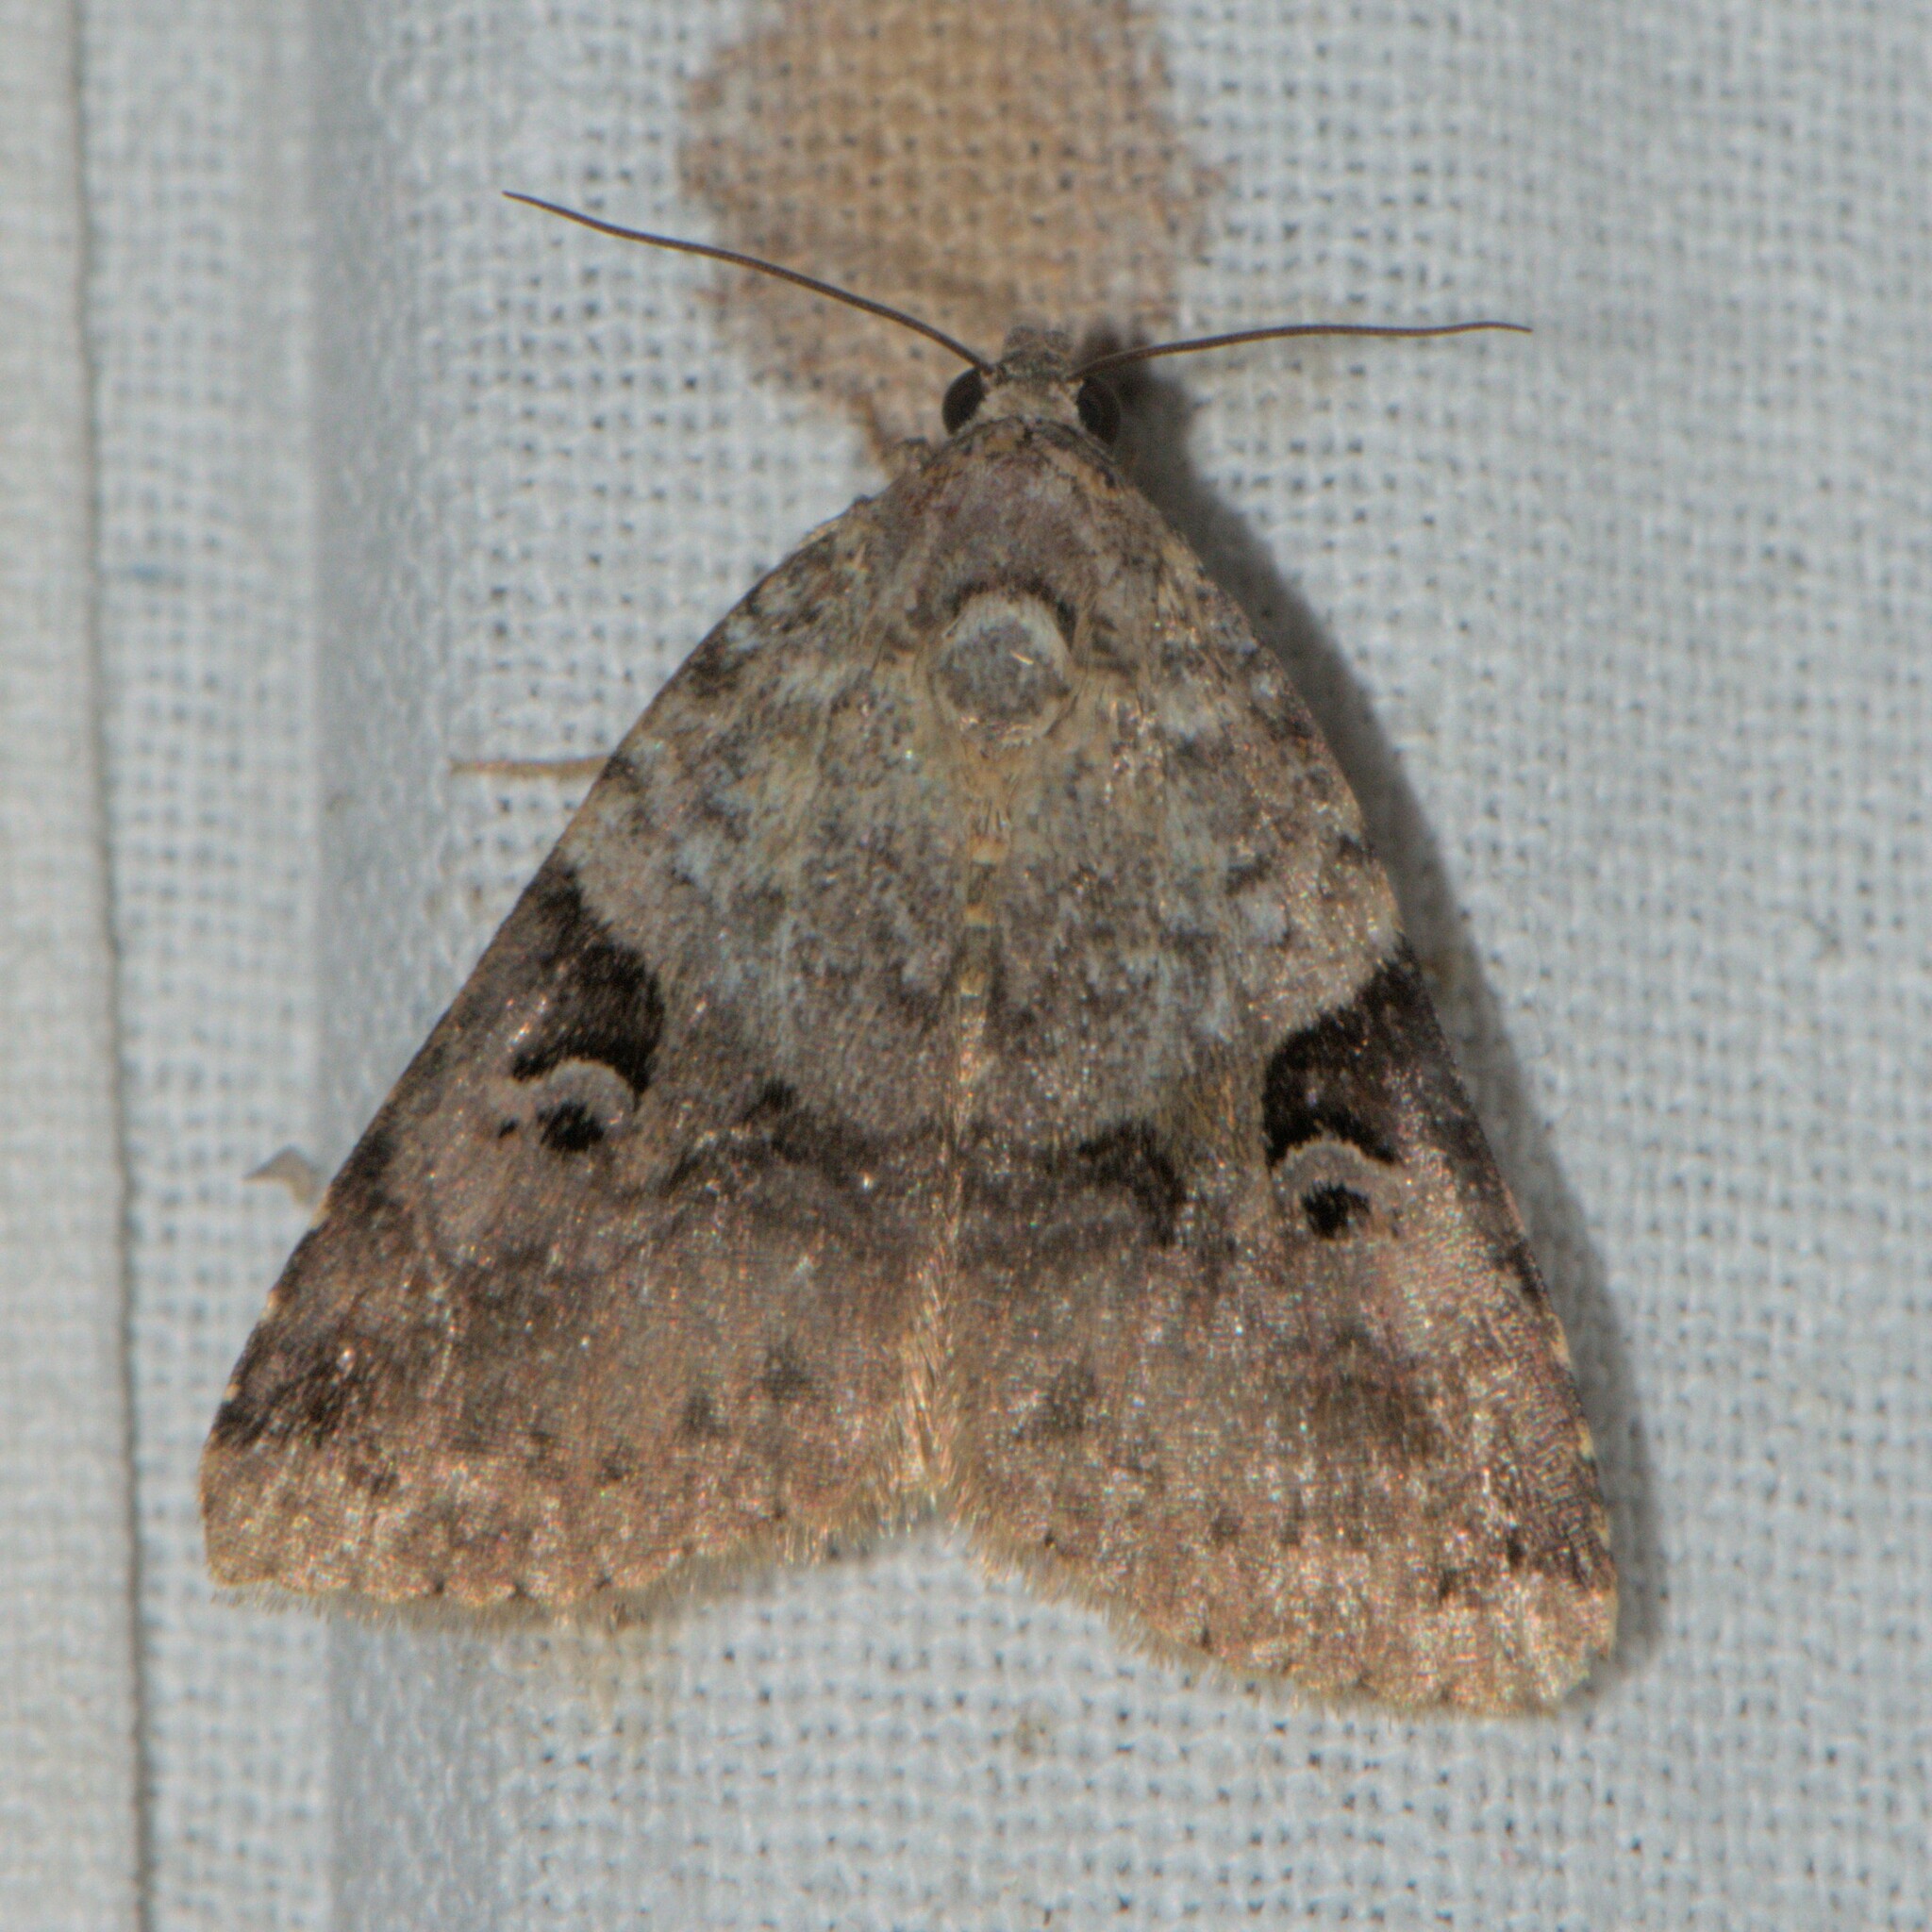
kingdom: Animalia
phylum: Arthropoda
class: Insecta
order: Lepidoptera
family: Noctuidae
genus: Pseudeustrotia
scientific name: Pseudeustrotia dimera
